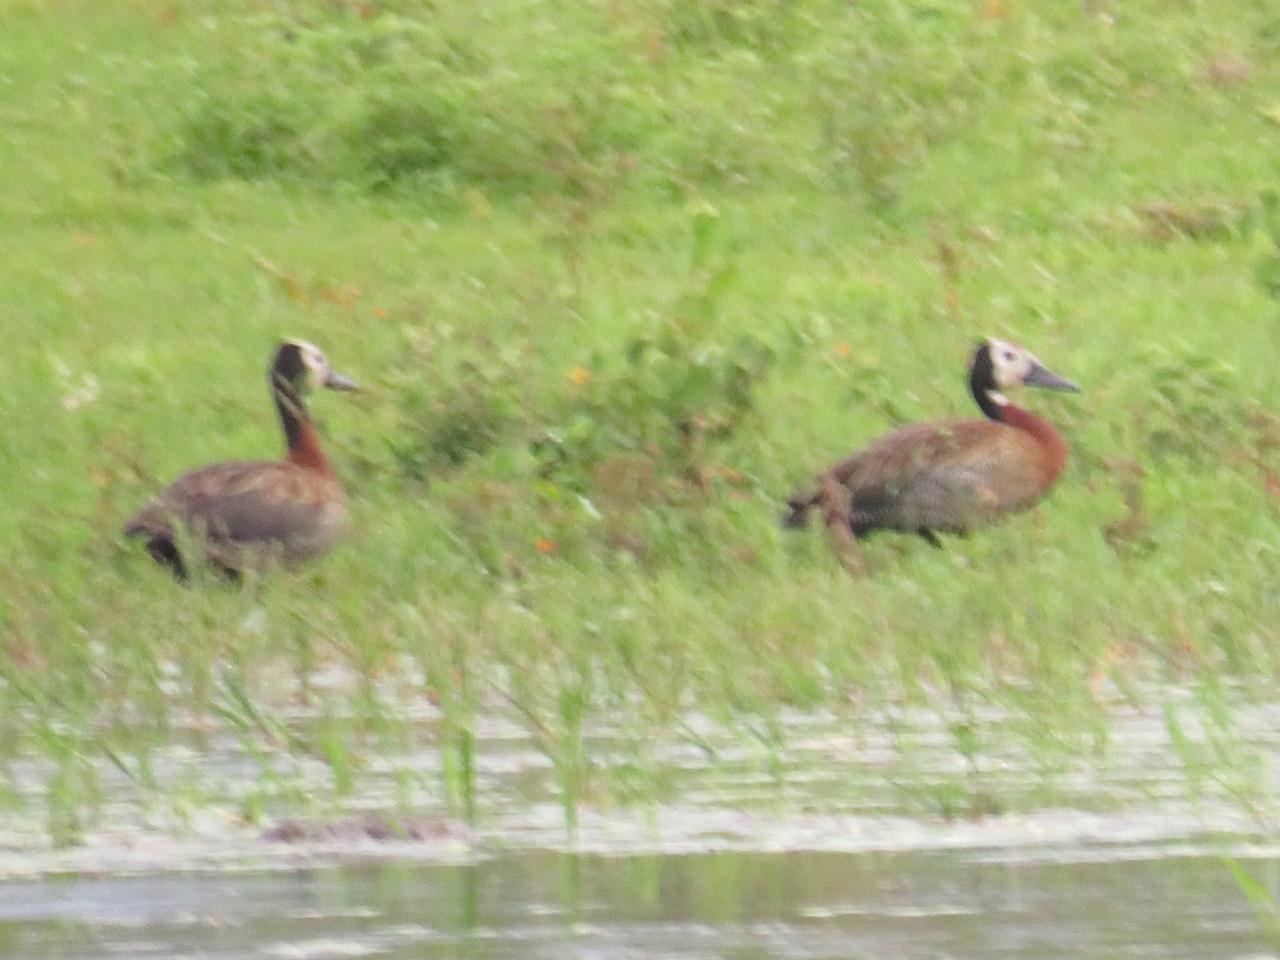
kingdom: Animalia
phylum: Chordata
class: Aves
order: Anseriformes
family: Anatidae
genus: Dendrocygna
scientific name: Dendrocygna viduata
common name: White-faced whistling duck
